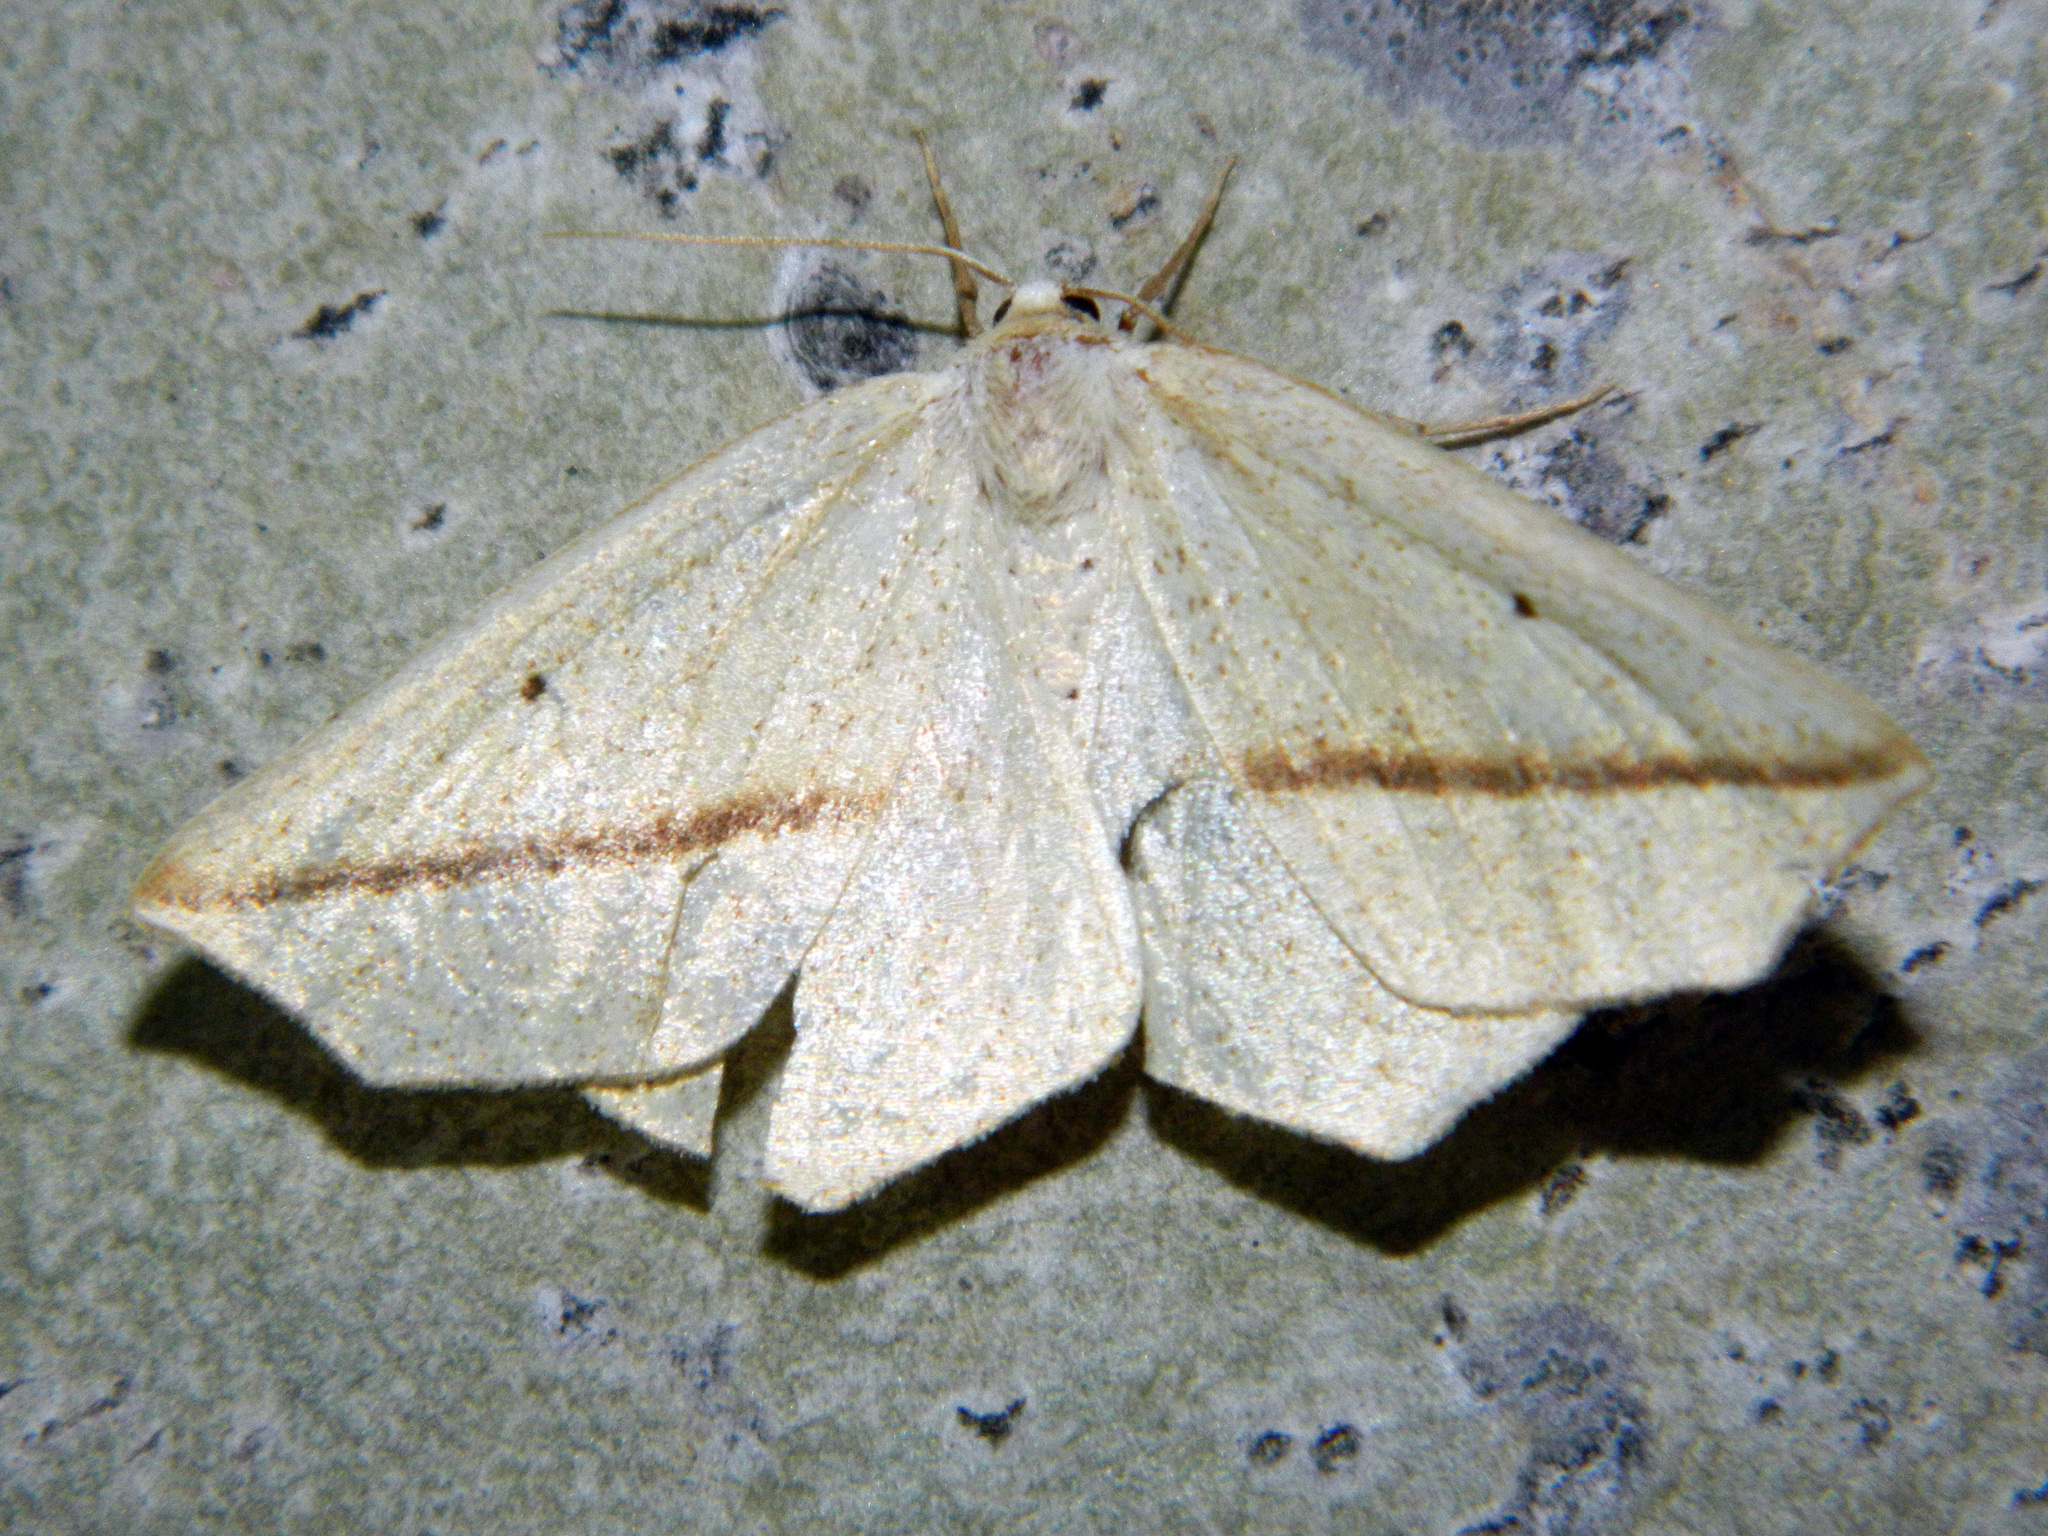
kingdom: Animalia
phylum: Arthropoda
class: Insecta
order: Lepidoptera
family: Geometridae
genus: Tetracis
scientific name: Tetracis crocallata
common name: Yellow slant-line
